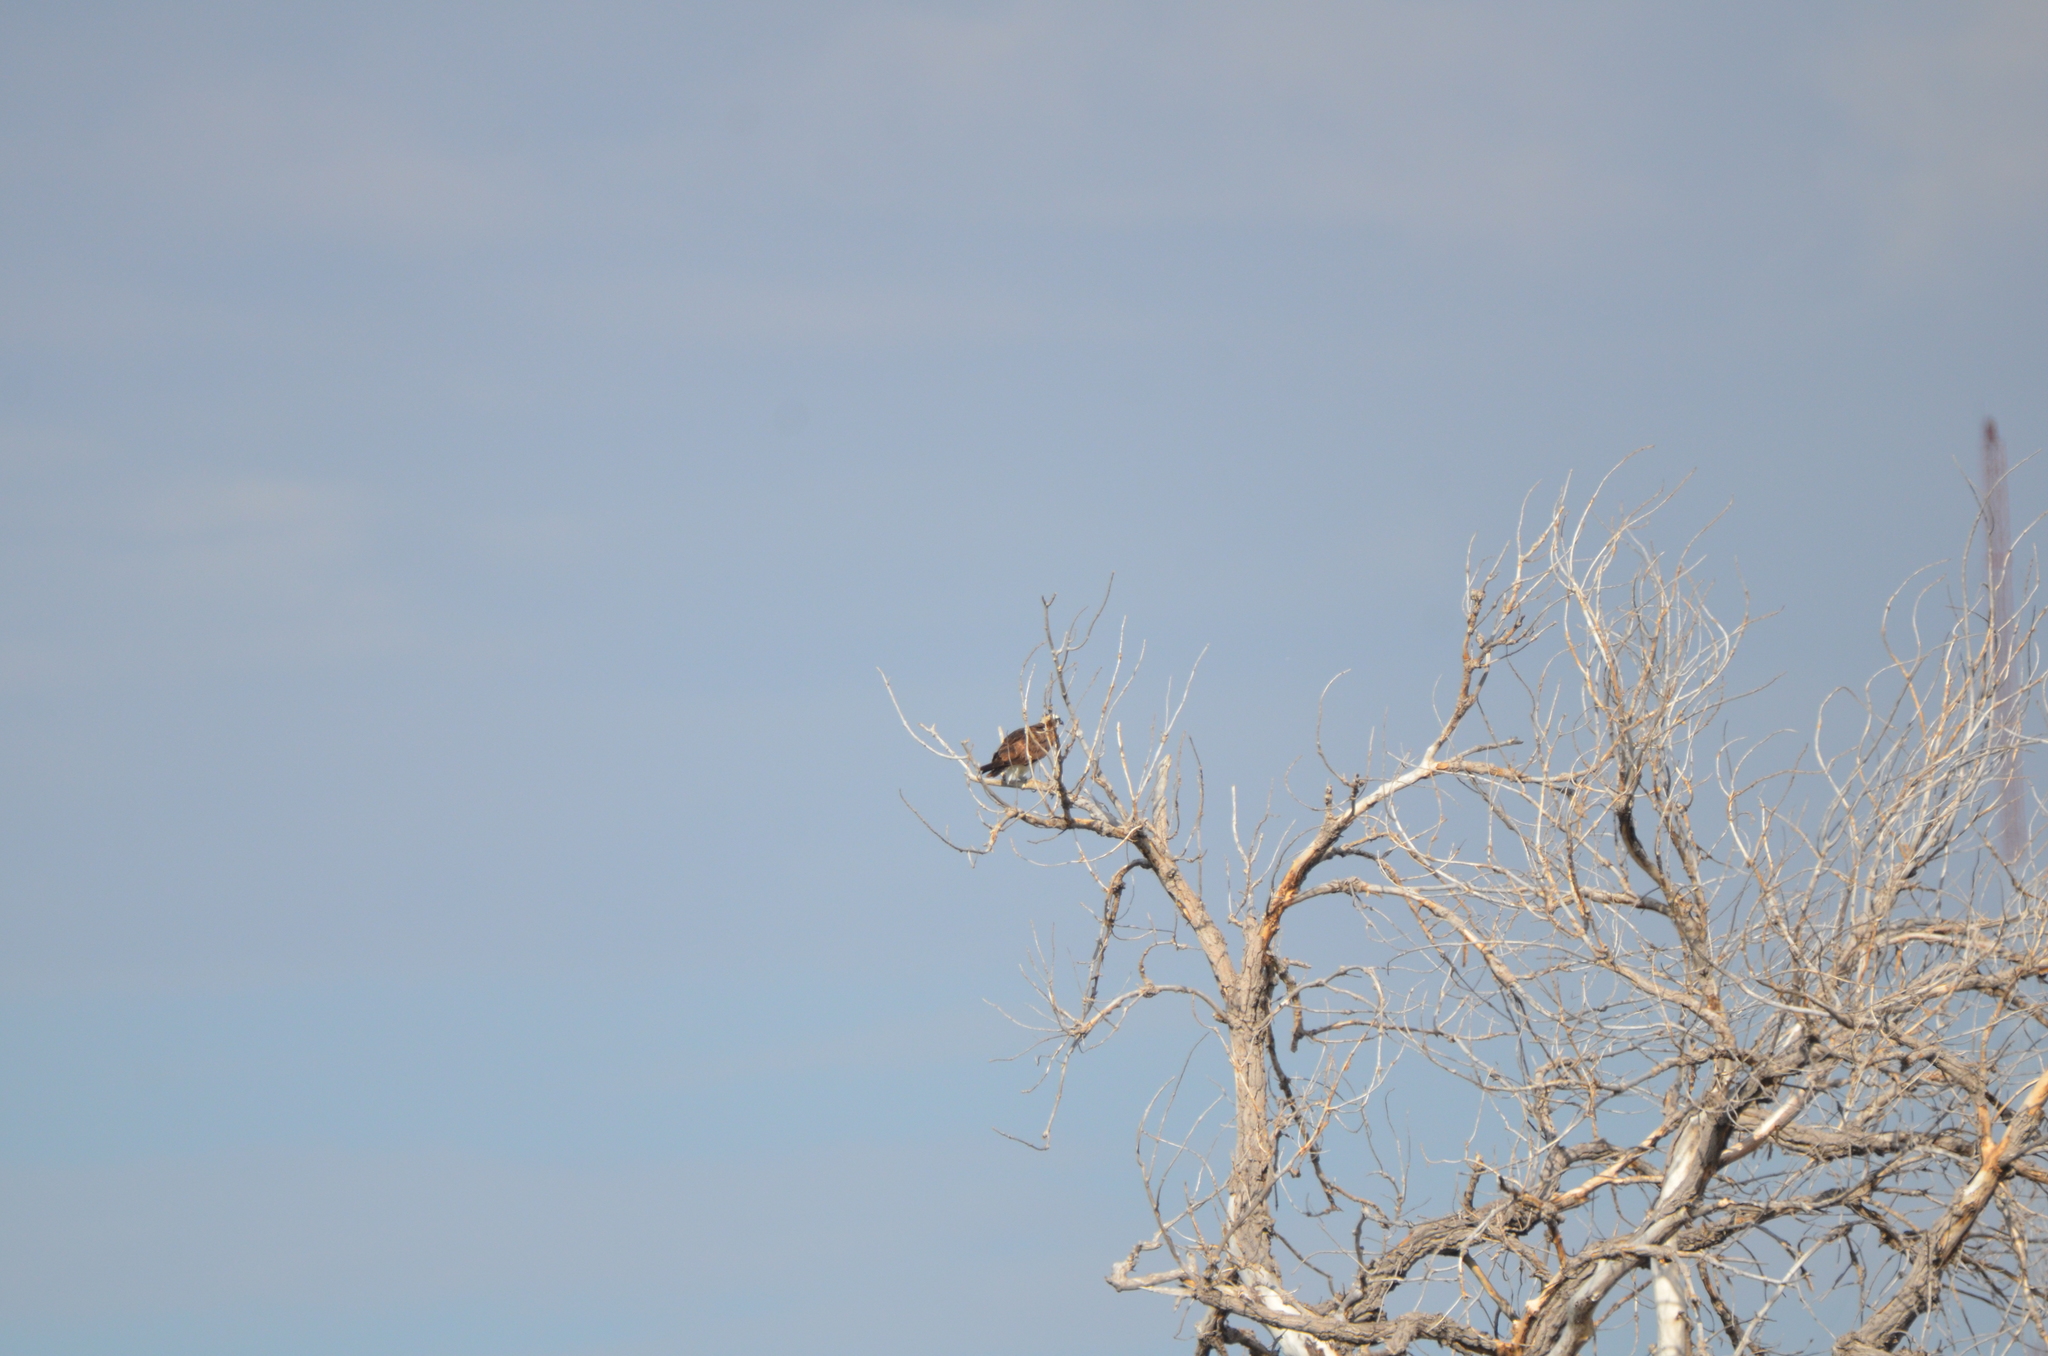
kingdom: Animalia
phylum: Chordata
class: Aves
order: Accipitriformes
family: Pandionidae
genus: Pandion
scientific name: Pandion haliaetus
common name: Osprey
